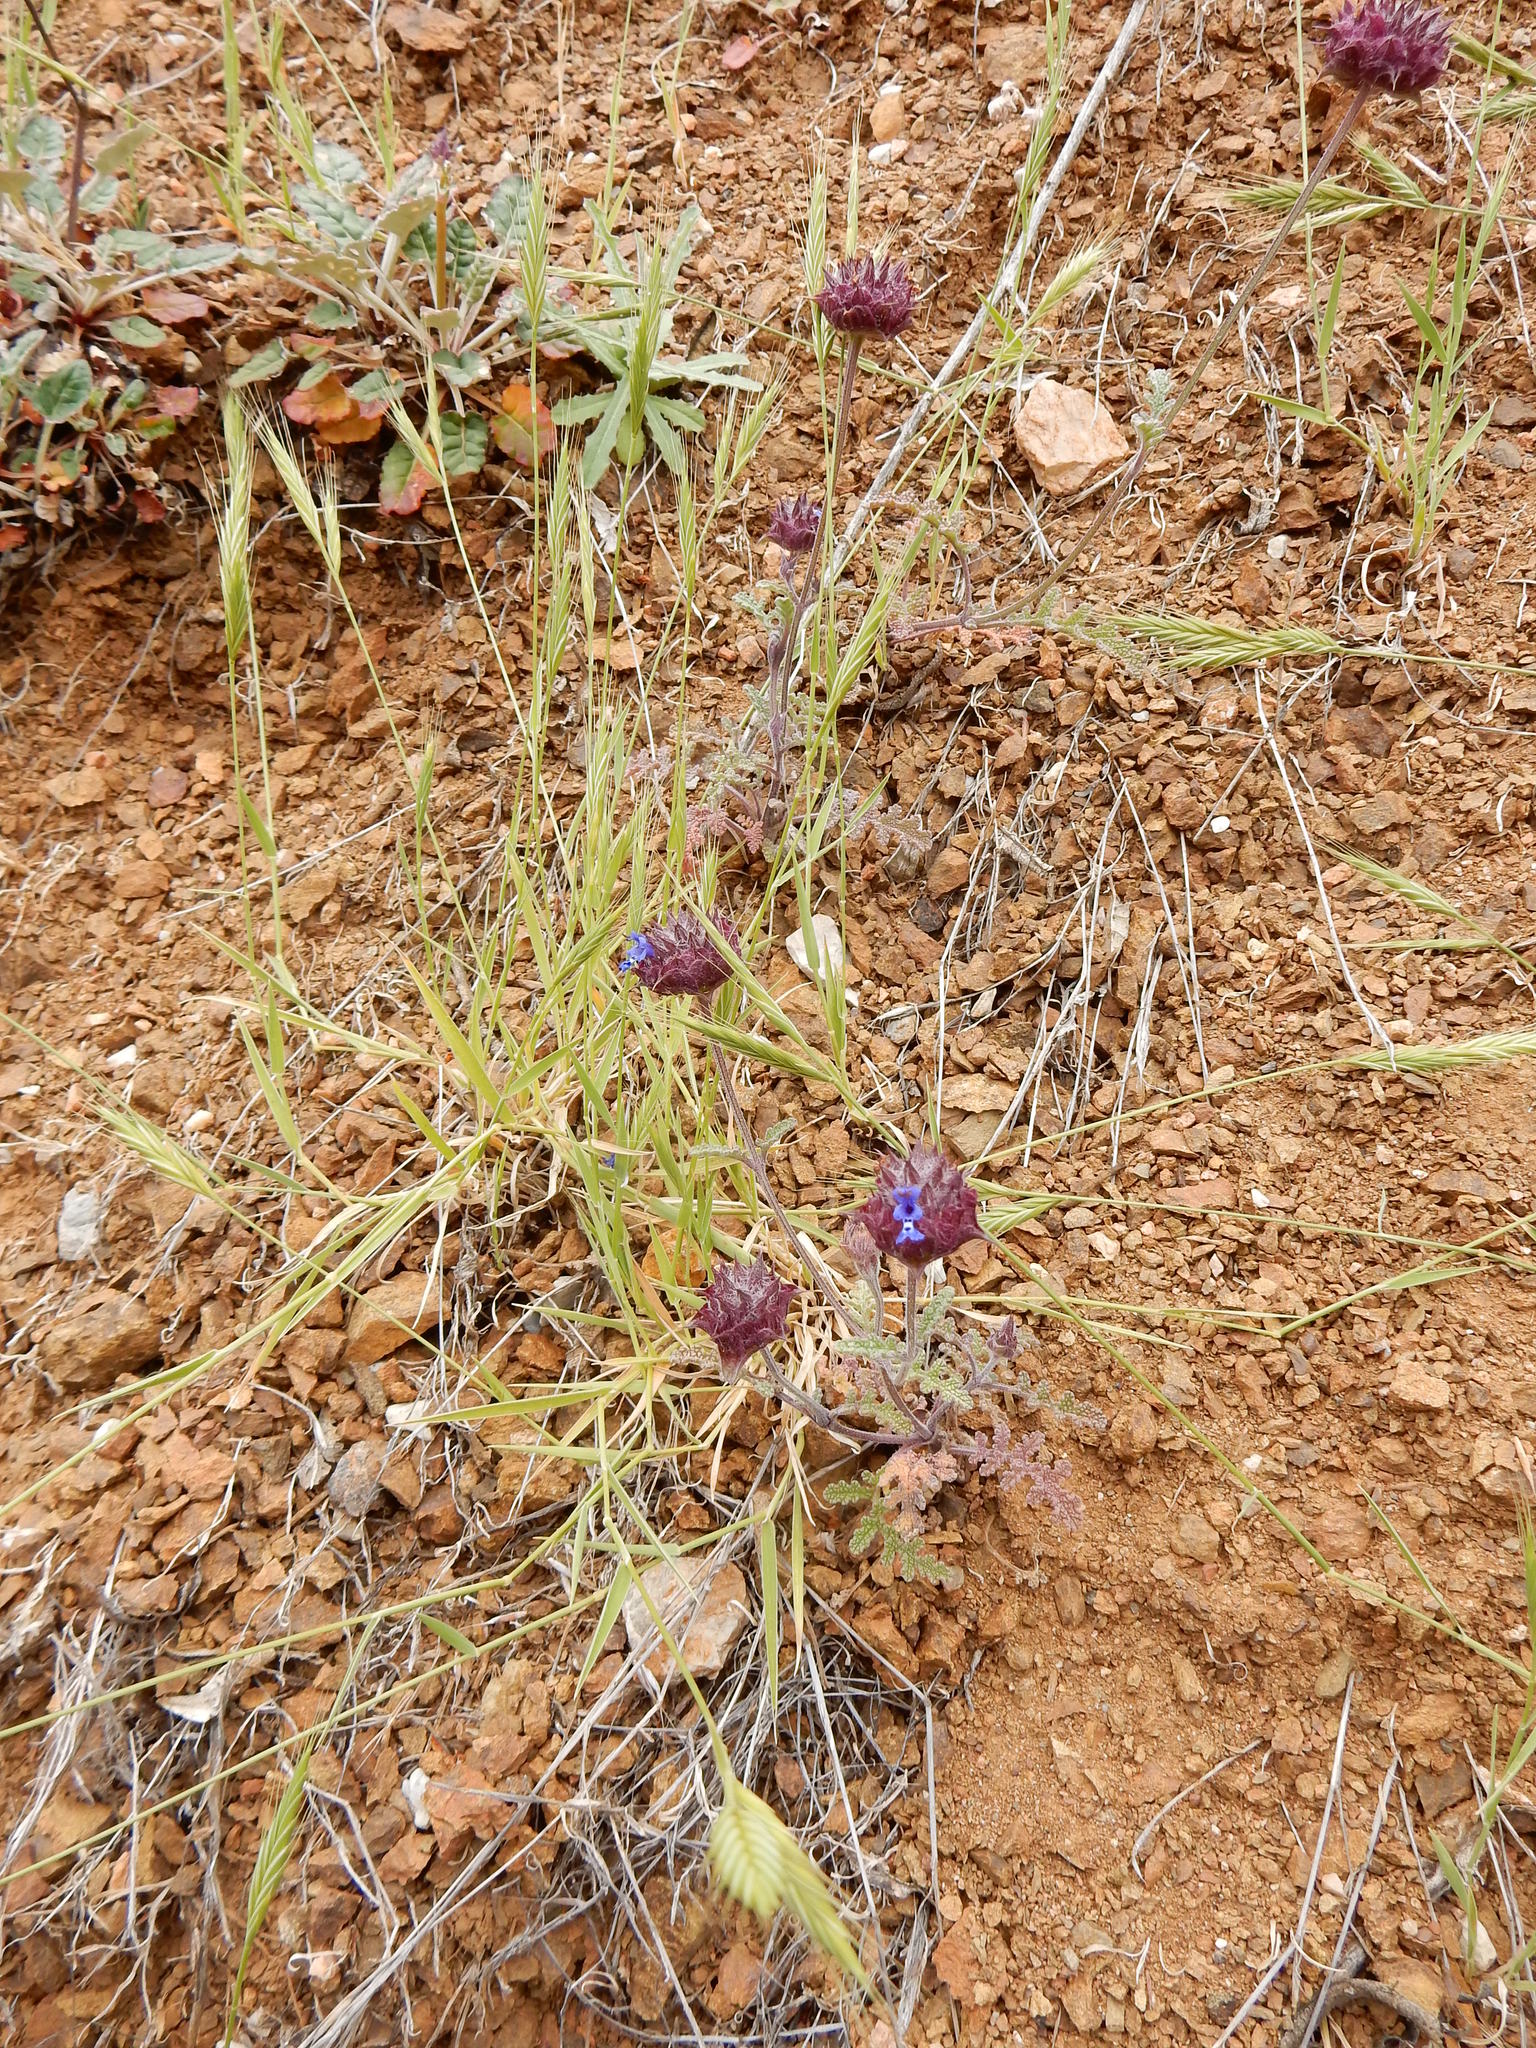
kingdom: Plantae
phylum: Tracheophyta
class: Magnoliopsida
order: Lamiales
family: Lamiaceae
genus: Salvia
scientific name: Salvia columbariae
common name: Chia
